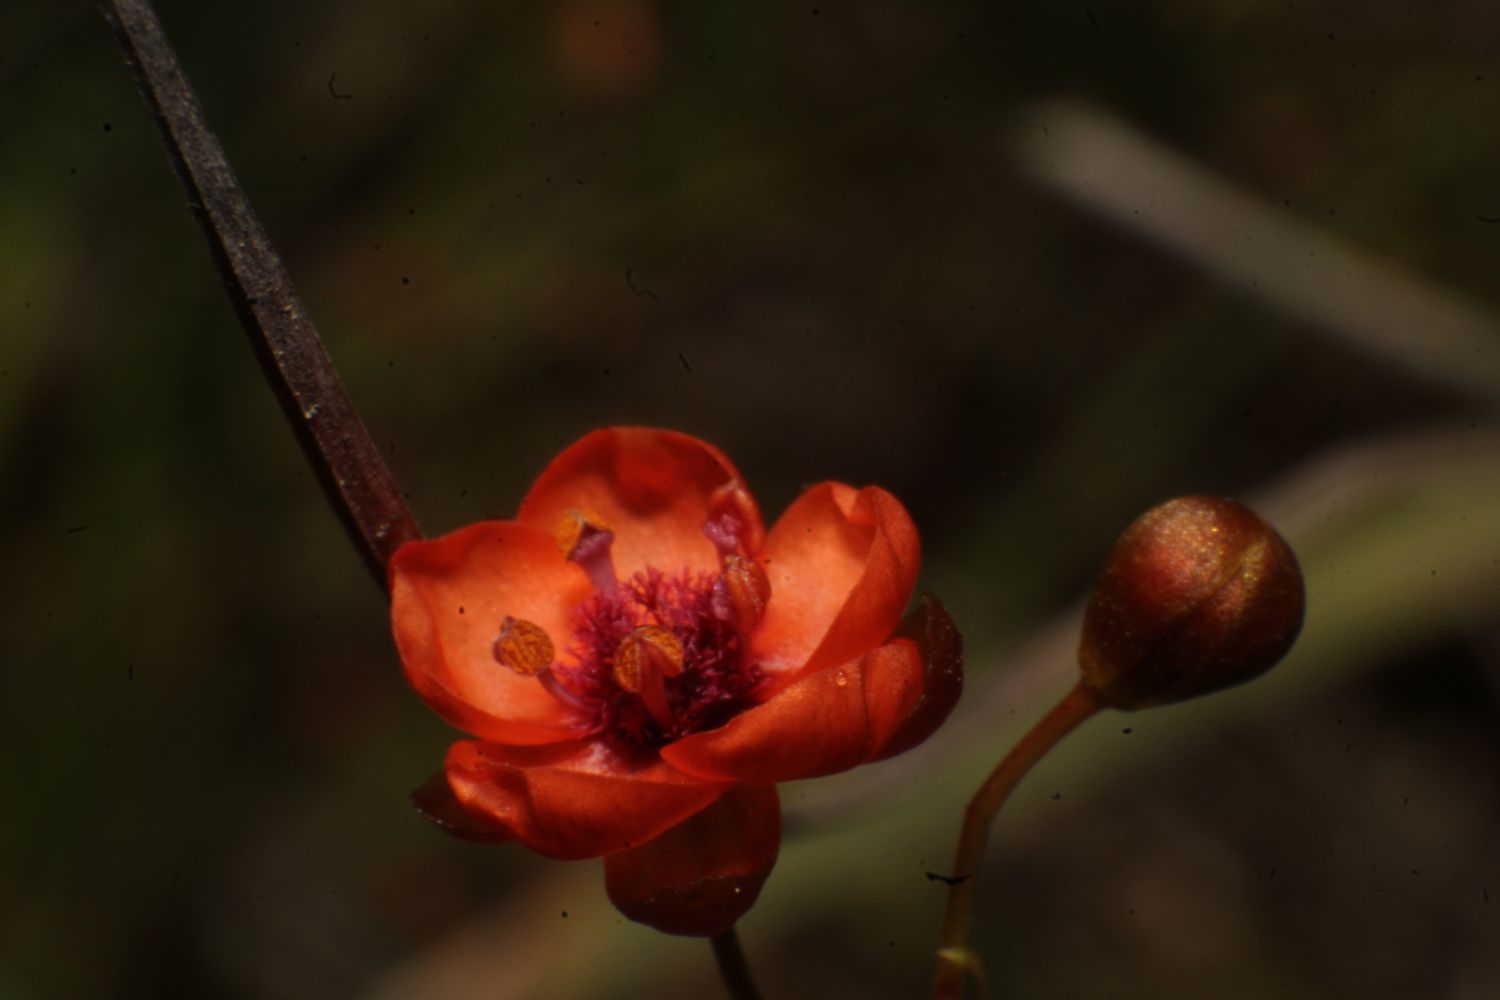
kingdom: Plantae
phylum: Tracheophyta
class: Magnoliopsida
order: Caryophyllales
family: Droseraceae
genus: Drosera
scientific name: Drosera microphylla
